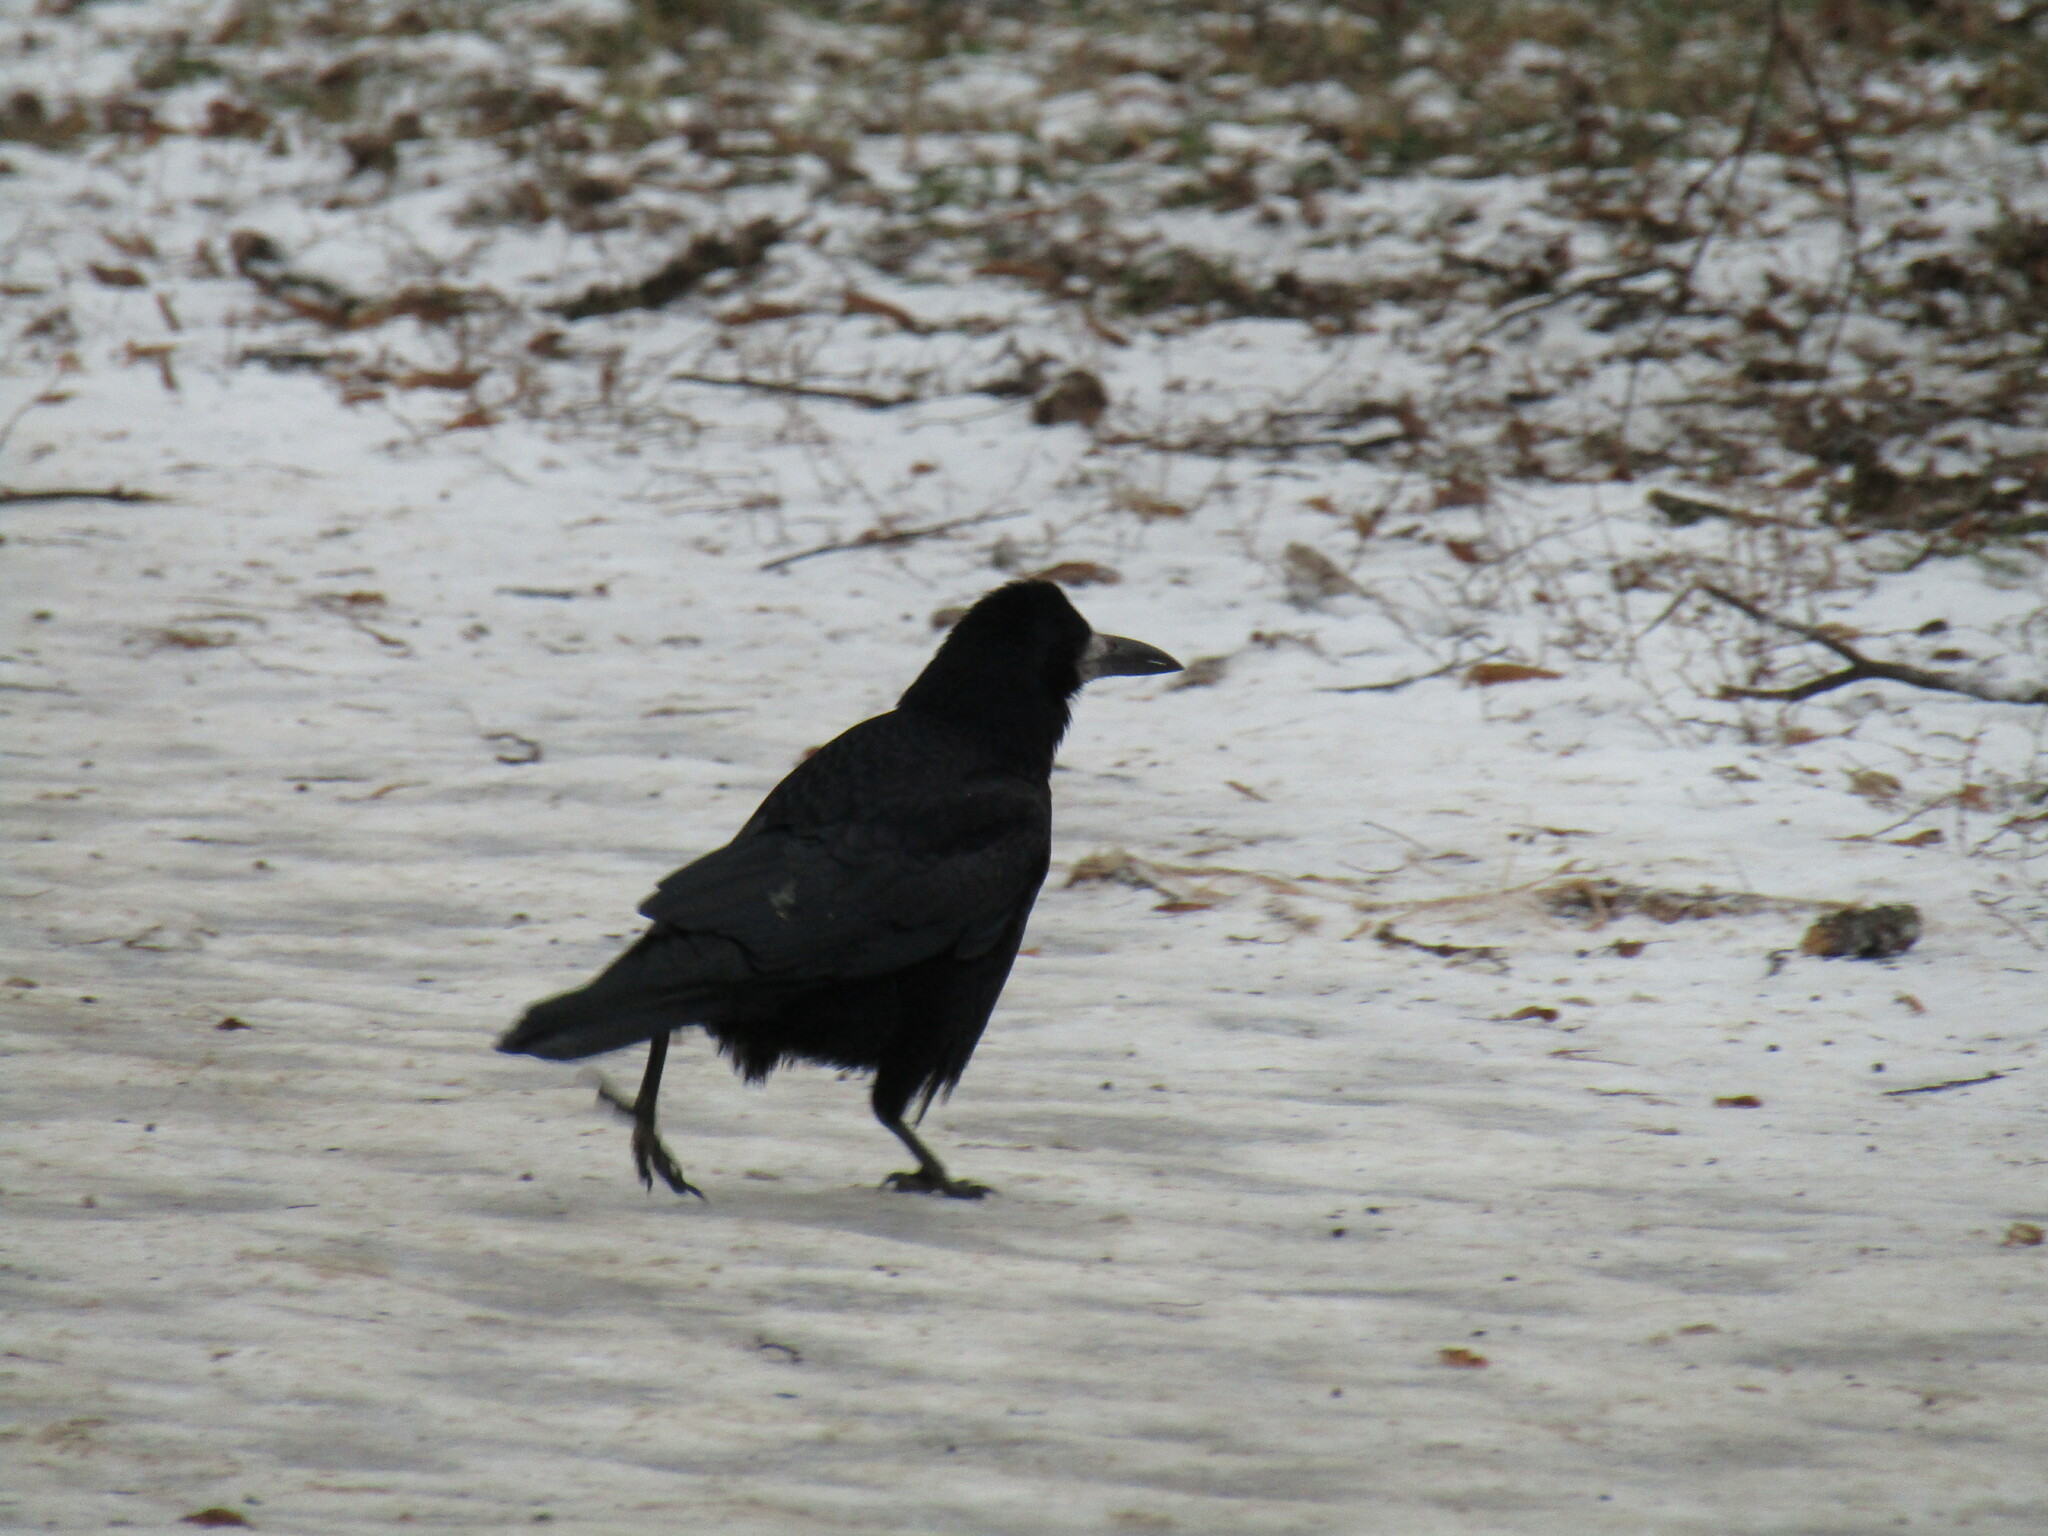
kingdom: Animalia
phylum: Chordata
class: Aves
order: Passeriformes
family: Corvidae
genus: Corvus
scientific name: Corvus frugilegus
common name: Rook
